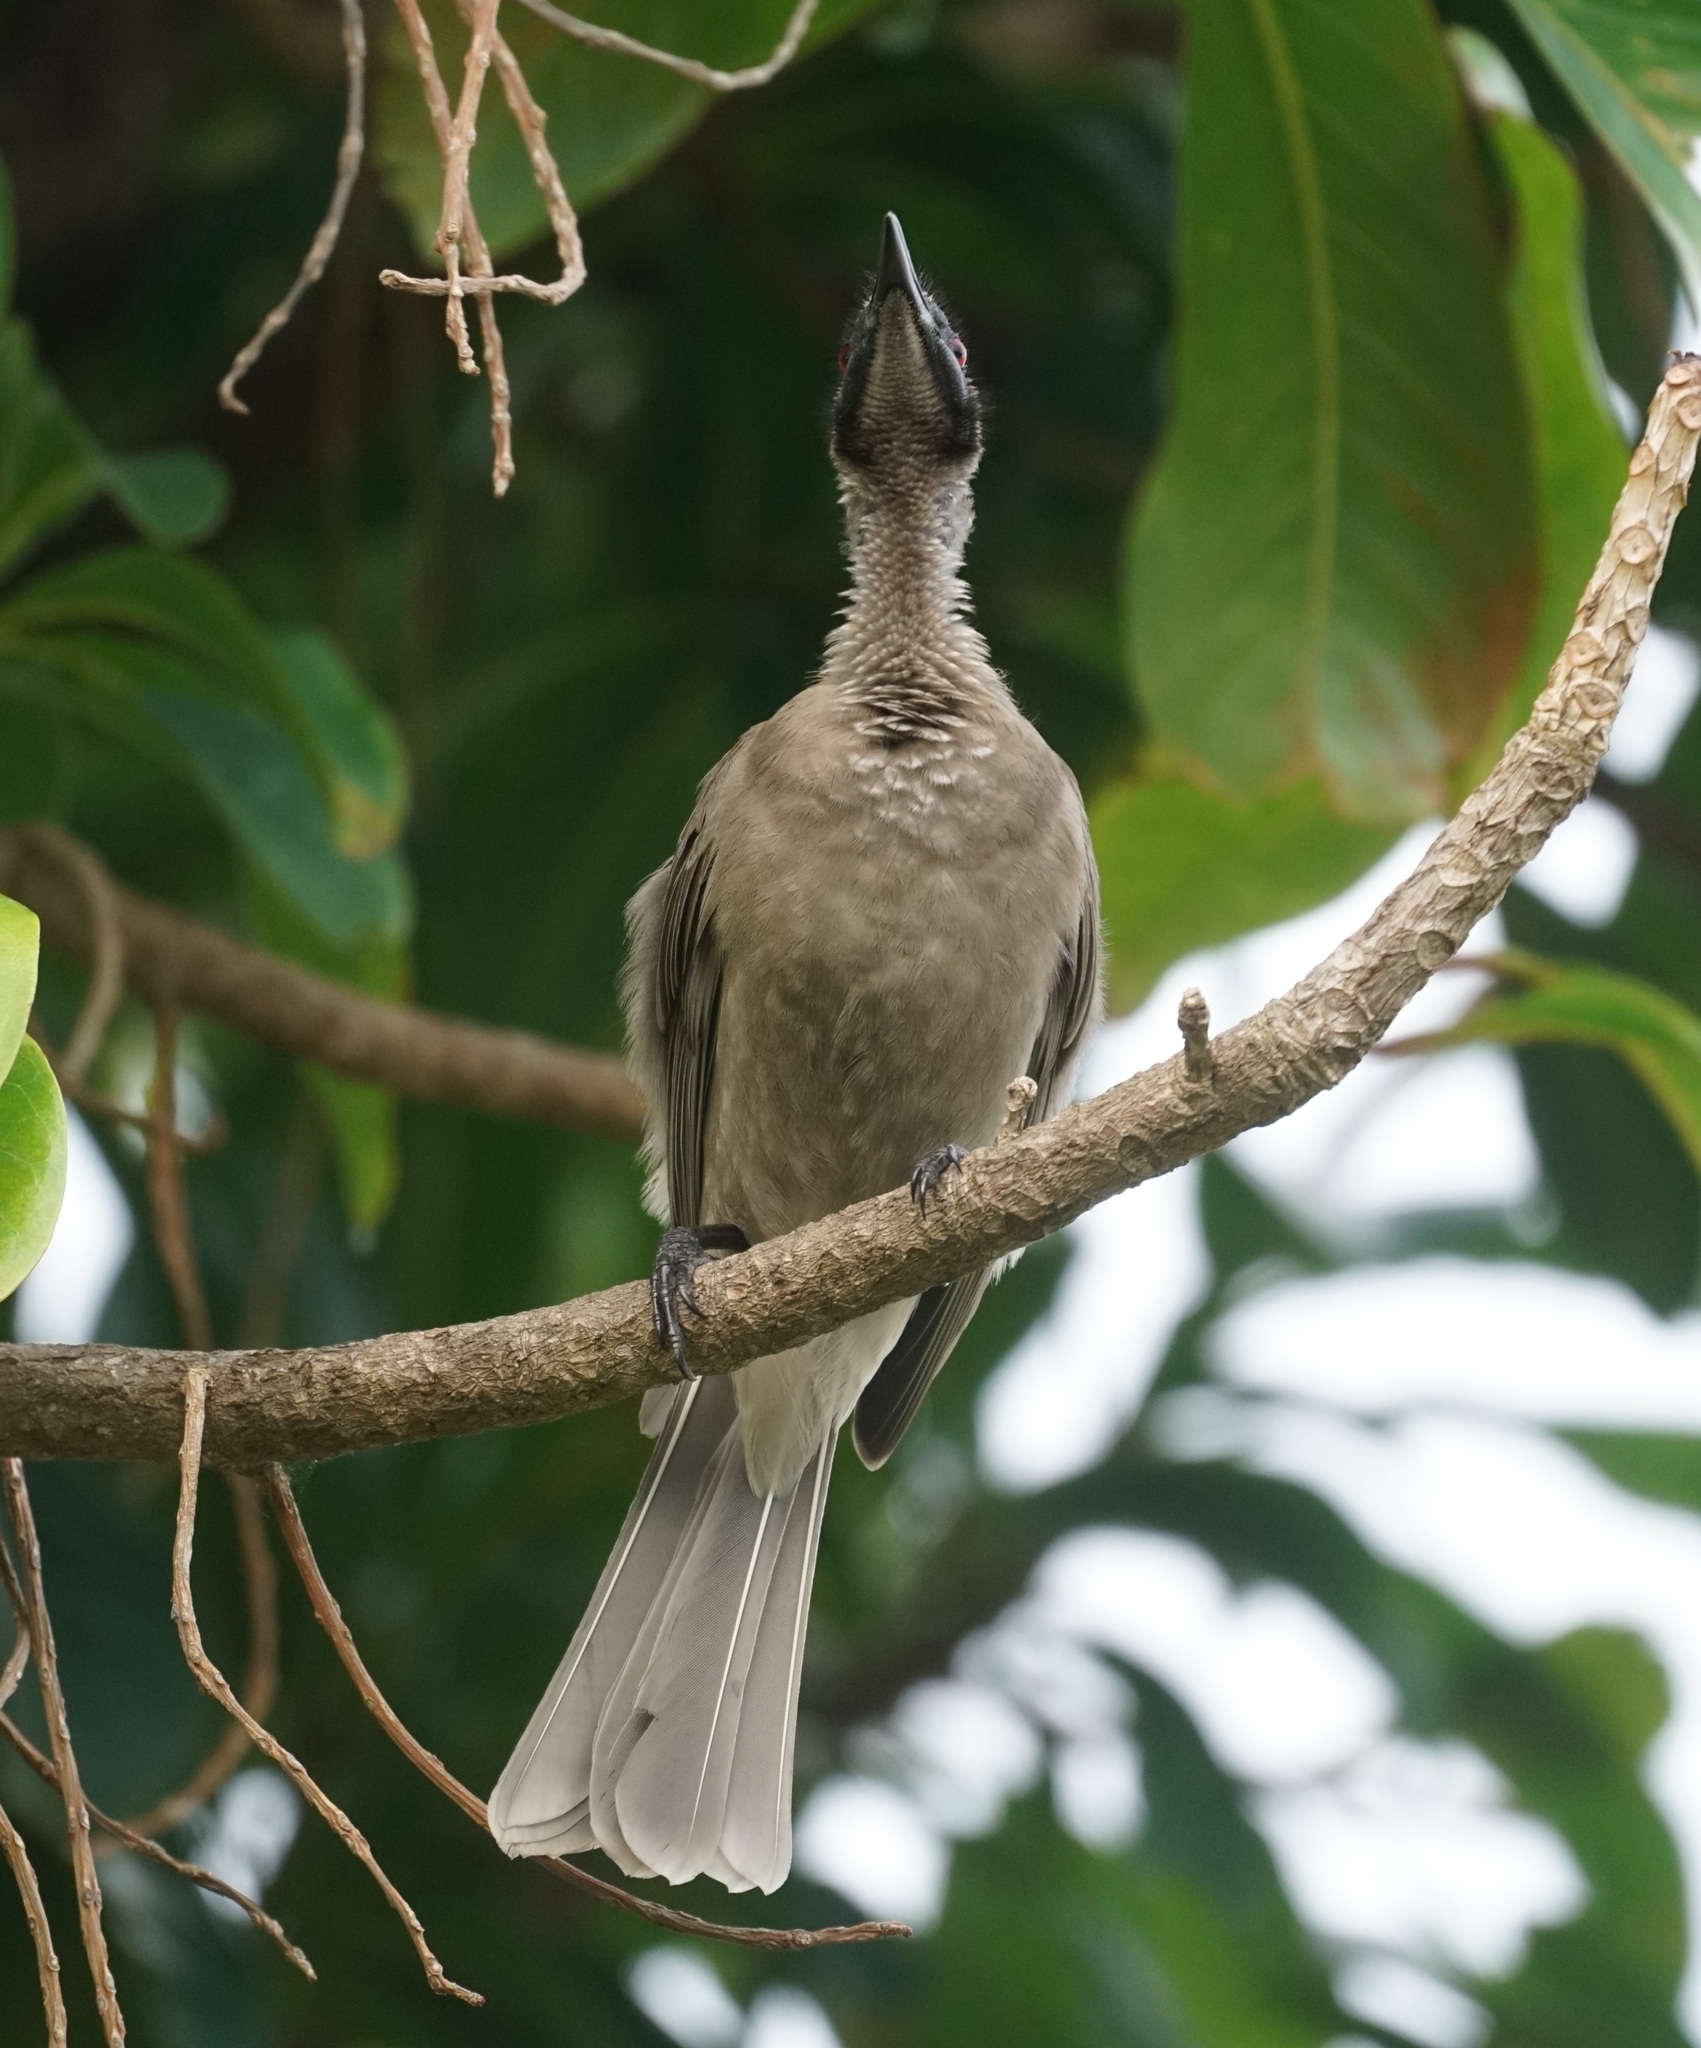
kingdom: Animalia
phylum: Chordata
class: Aves
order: Passeriformes
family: Meliphagidae
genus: Philemon
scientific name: Philemon buceroides
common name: Helmeted friarbird
